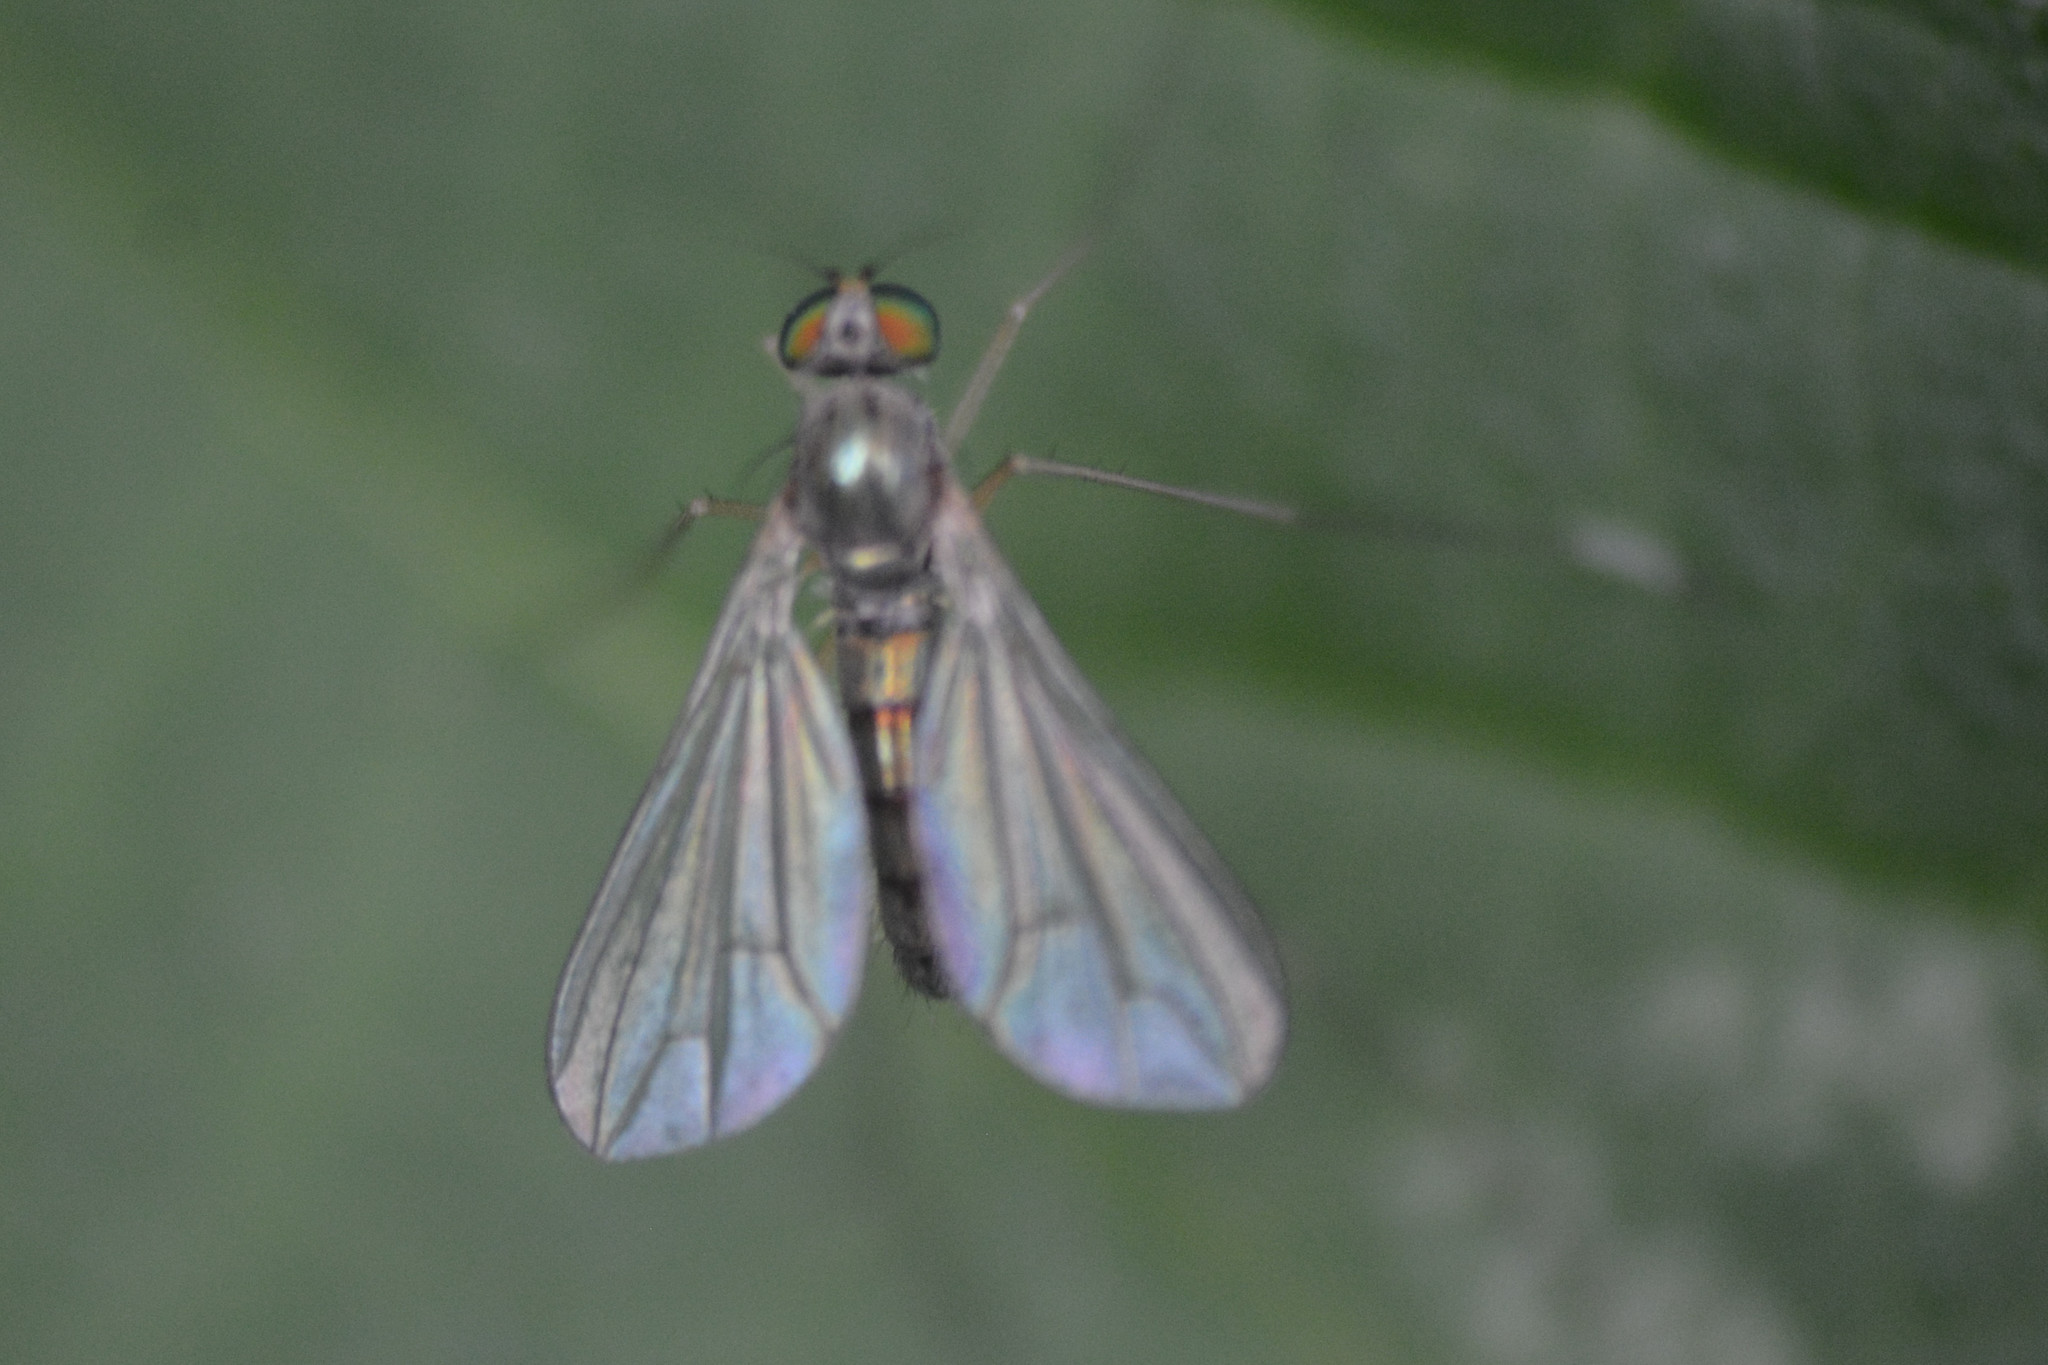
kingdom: Animalia
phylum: Arthropoda
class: Insecta
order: Diptera
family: Dolichopodidae
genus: Sciapus
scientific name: Sciapus platypterus
